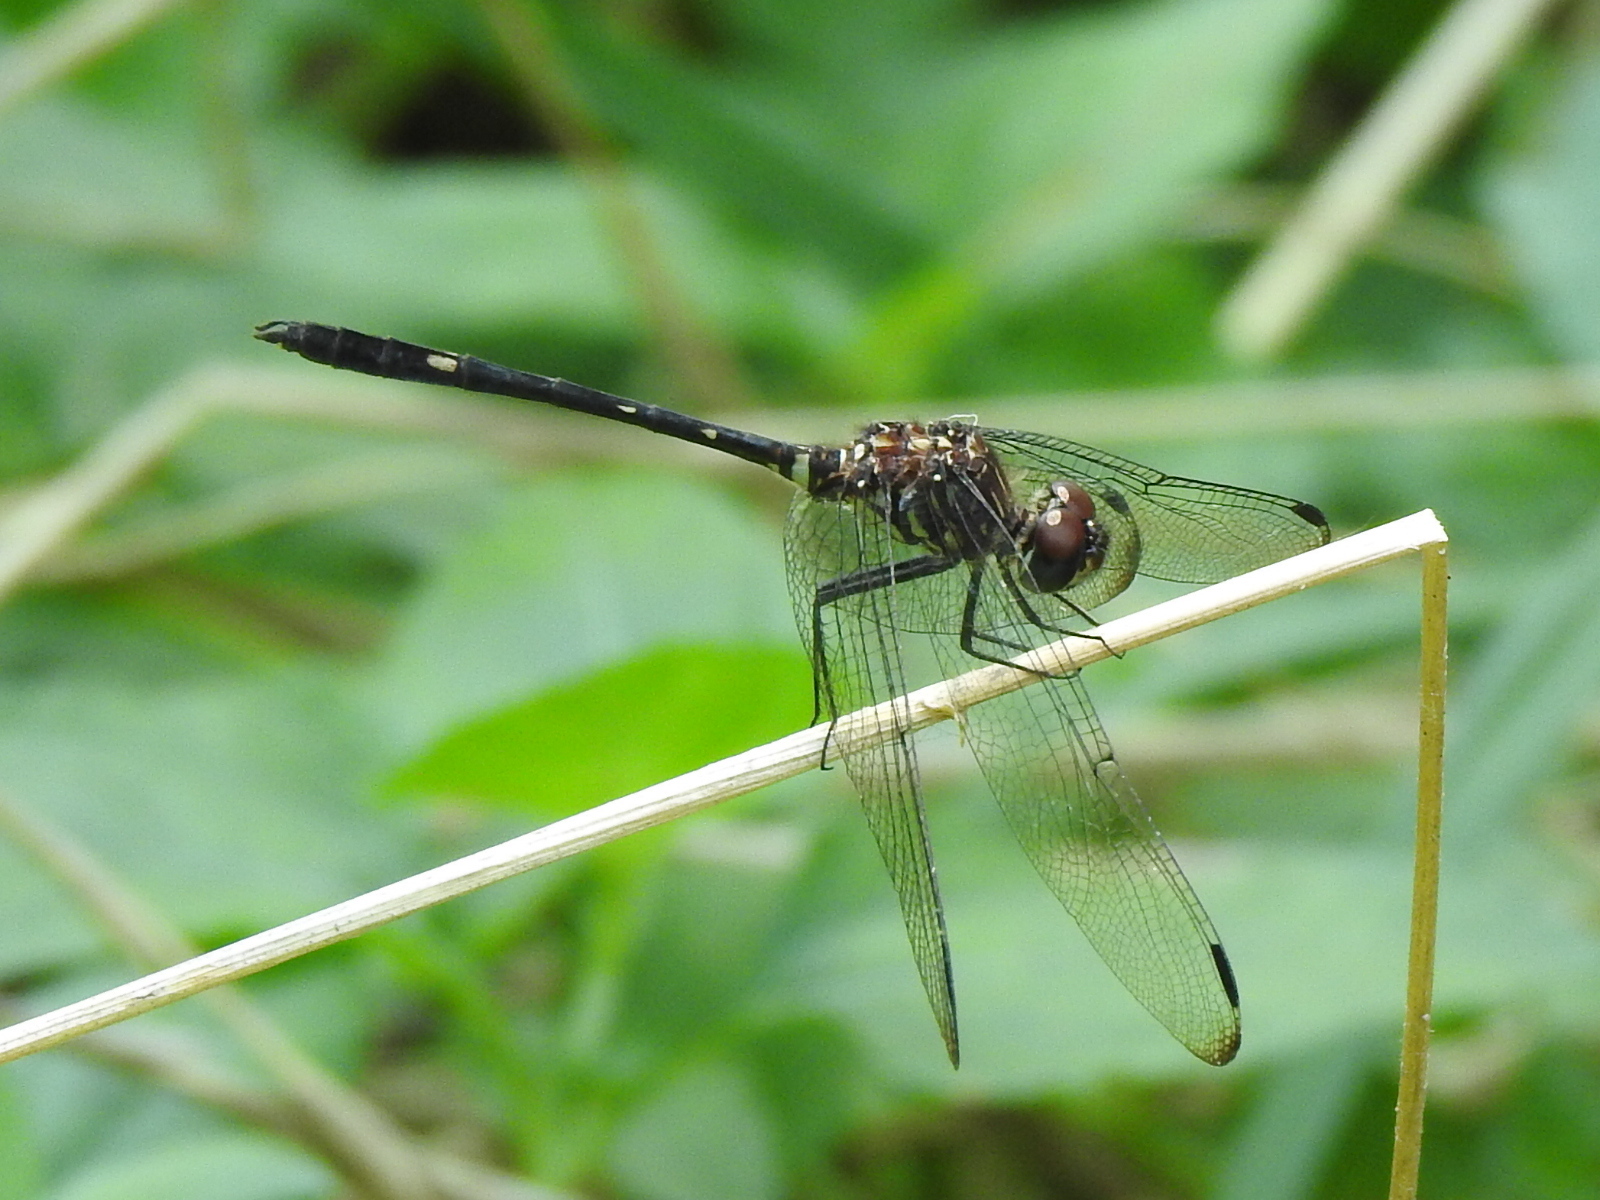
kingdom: Animalia
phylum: Arthropoda
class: Insecta
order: Odonata
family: Libellulidae
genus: Dythemis
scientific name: Dythemis velox
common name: Swift setwing
